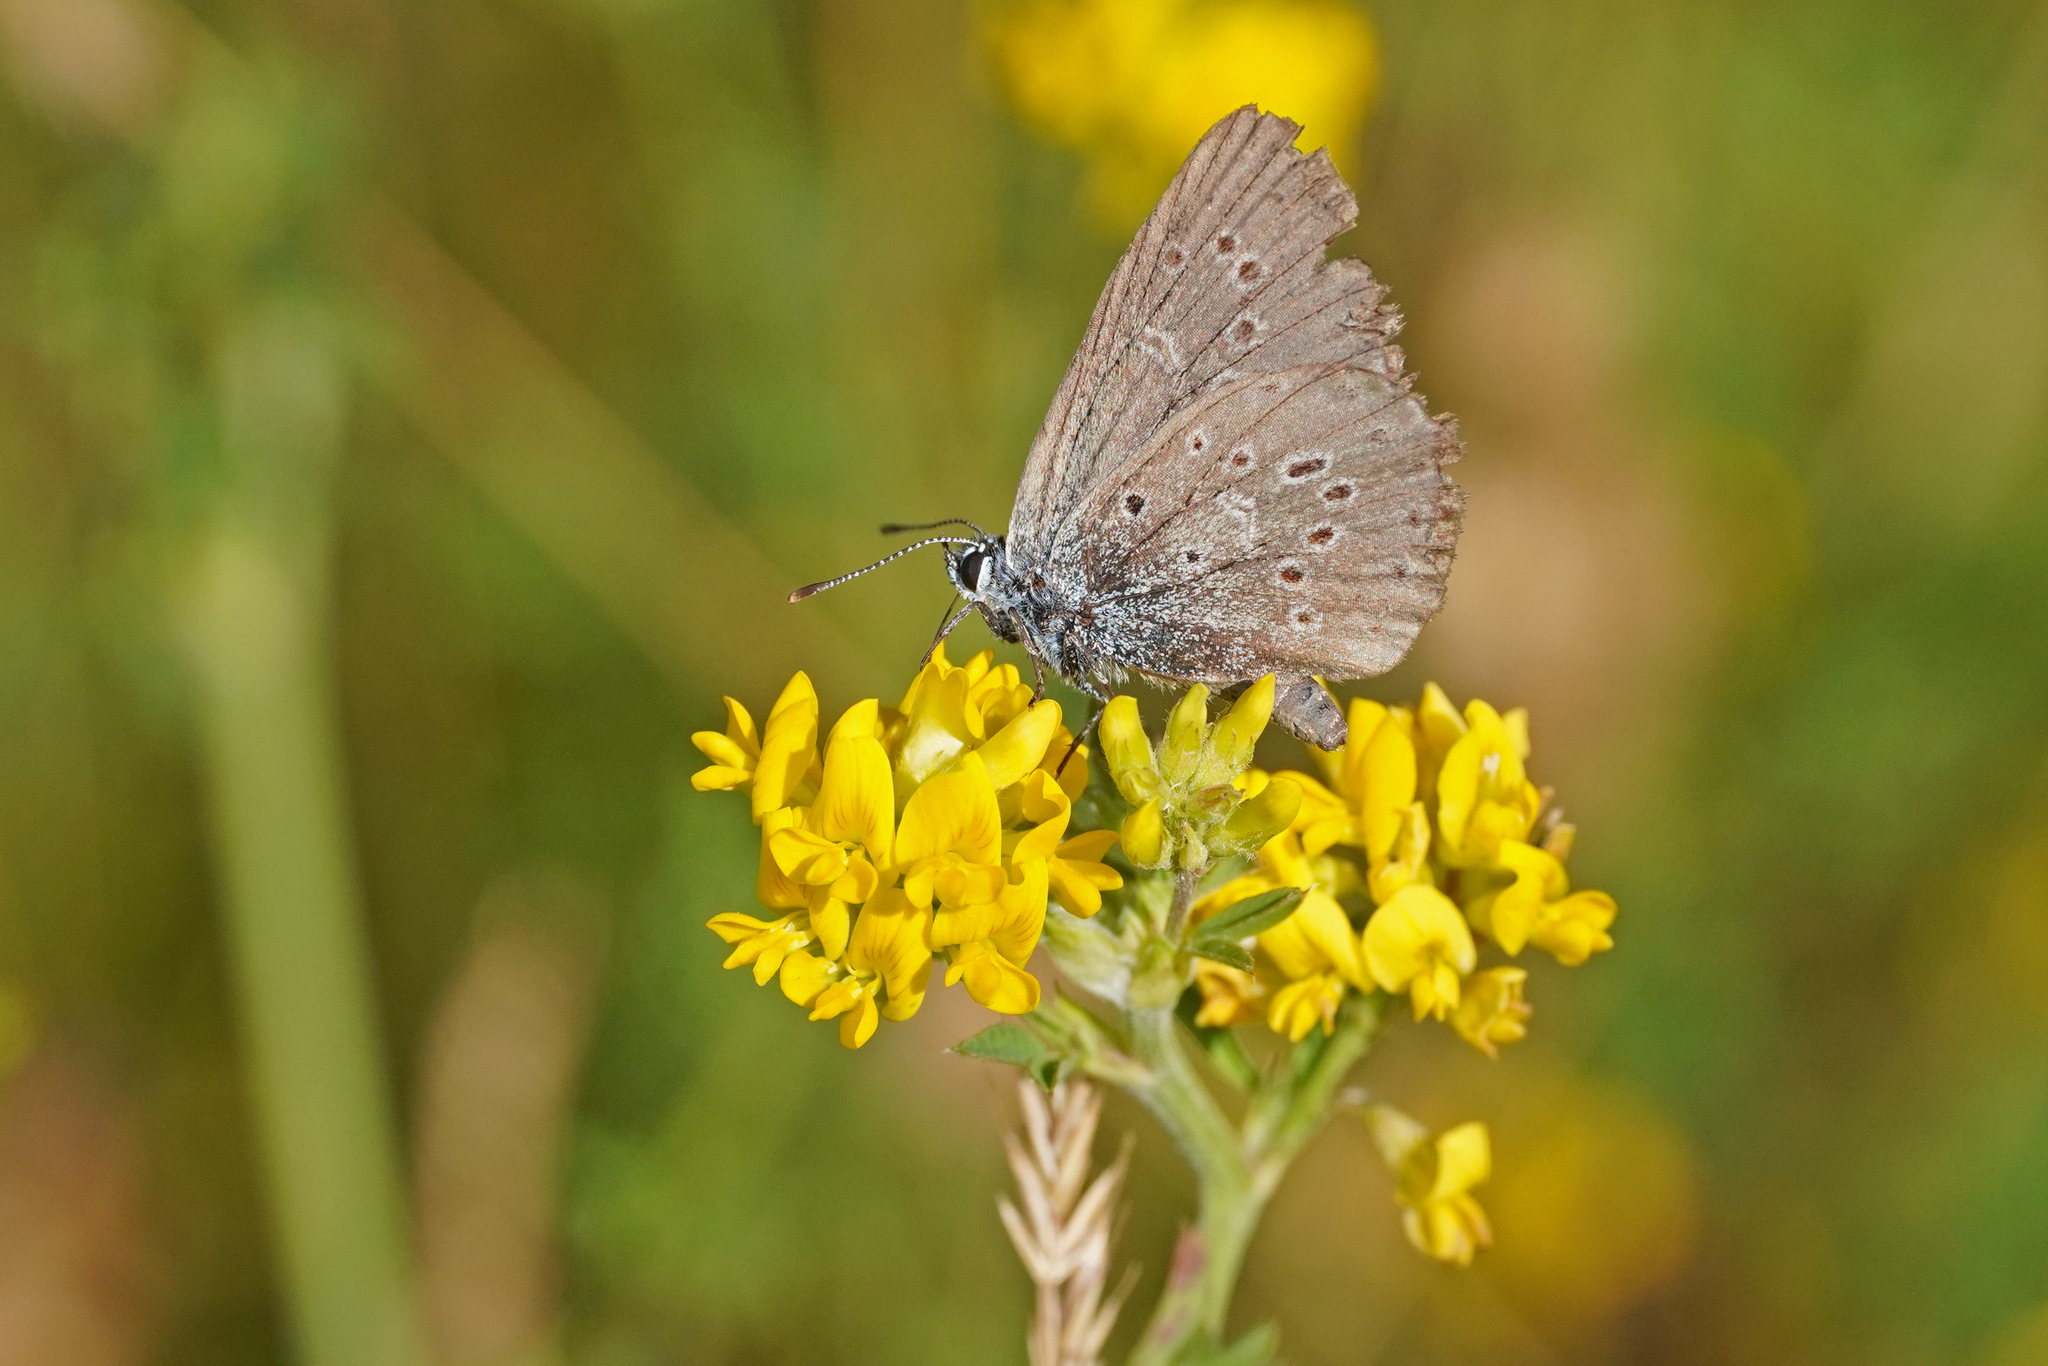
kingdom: Animalia
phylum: Arthropoda
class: Insecta
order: Lepidoptera
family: Lycaenidae
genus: Maculinea
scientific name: Maculinea alcon
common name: Alcon blue
